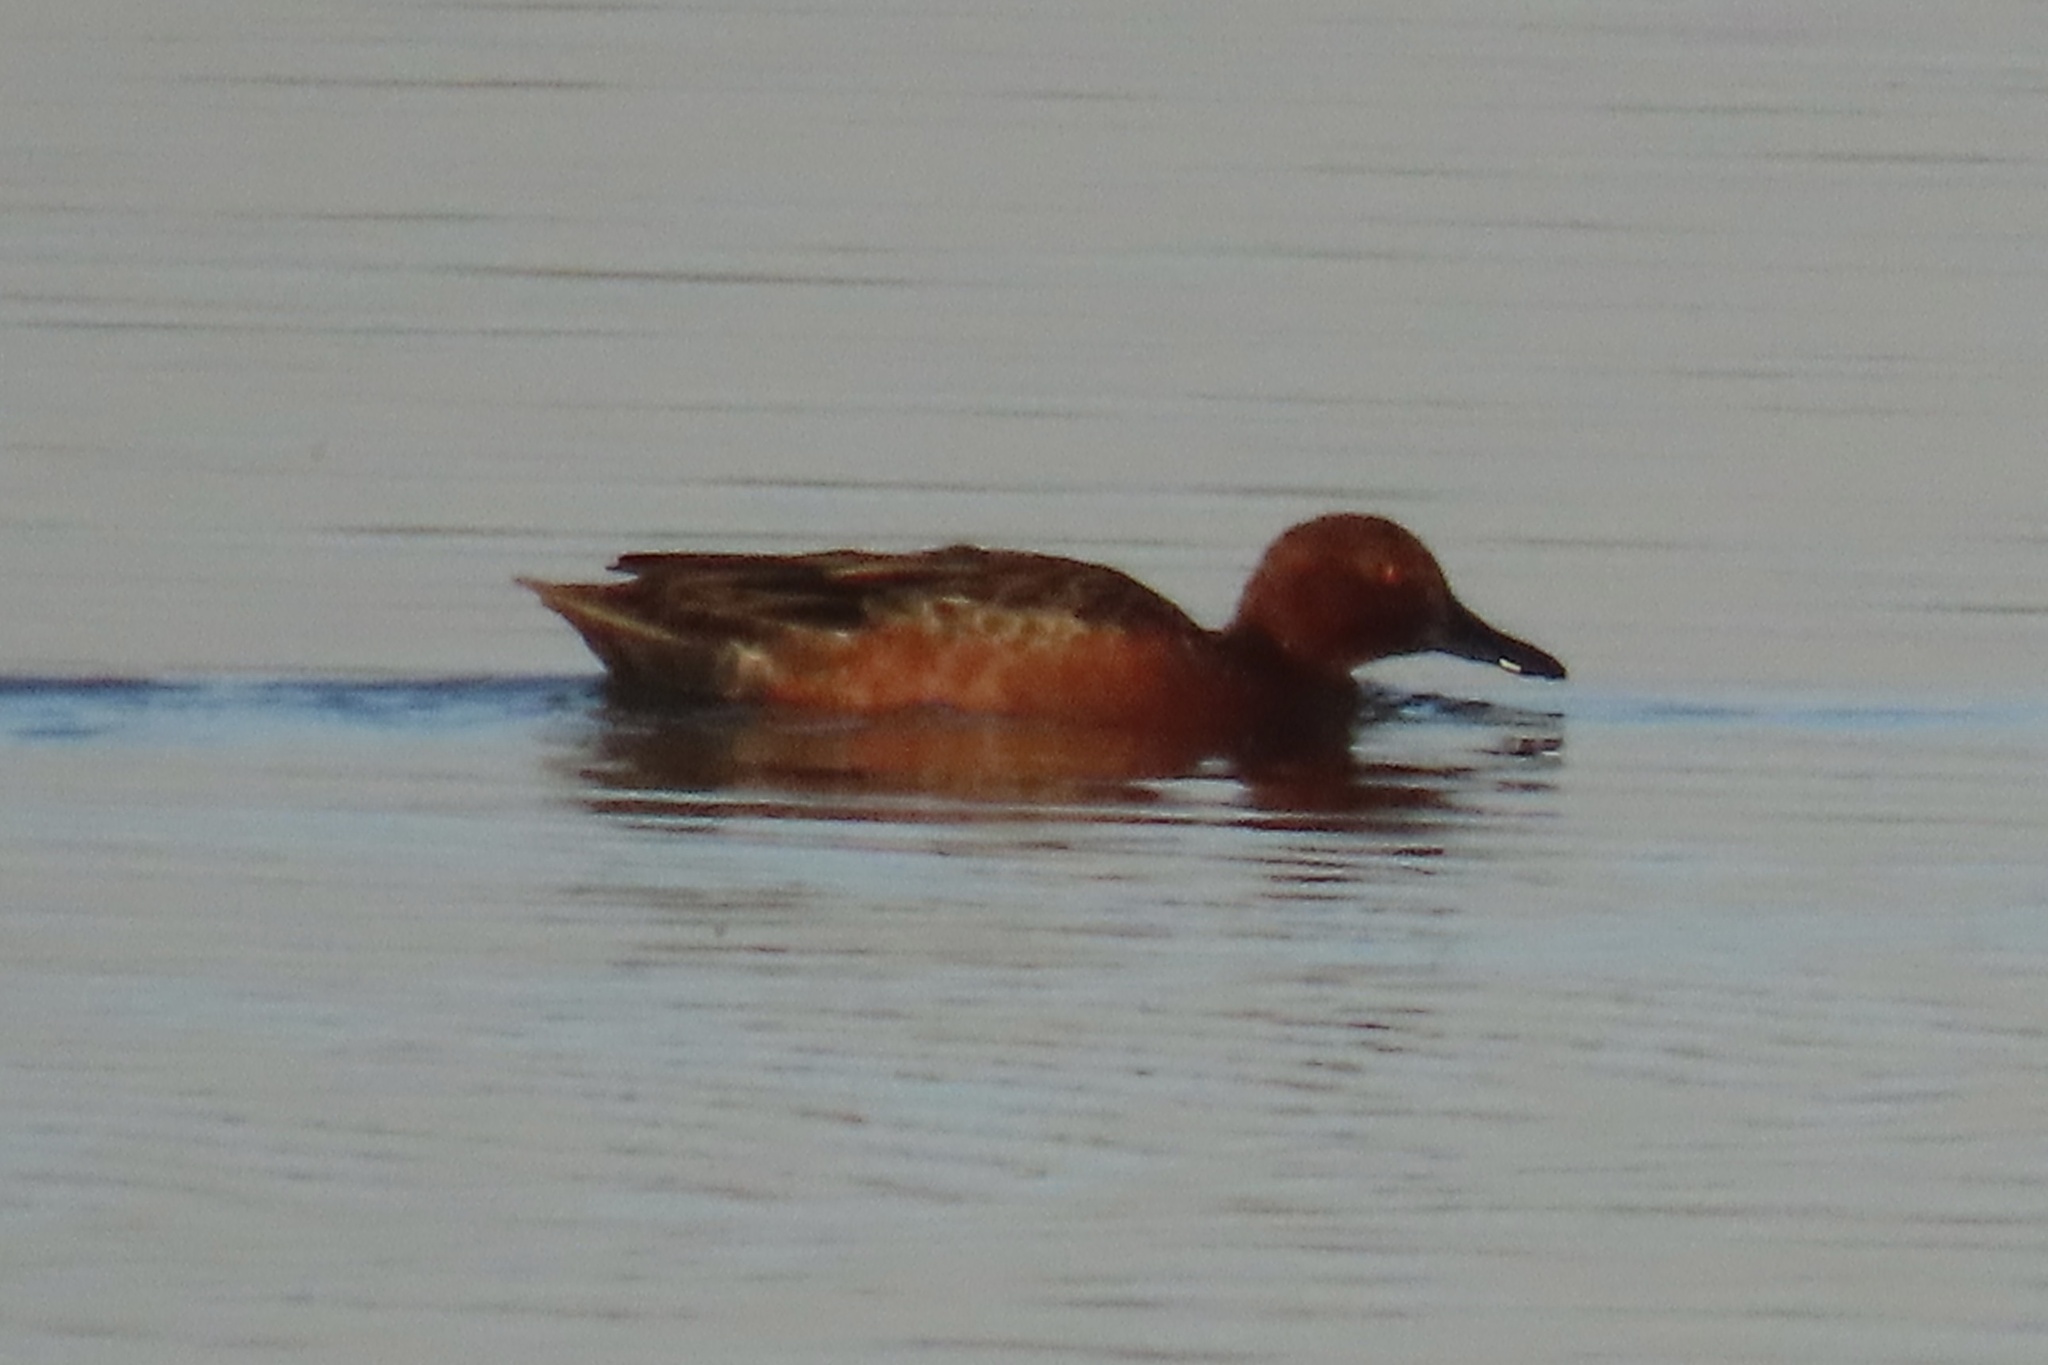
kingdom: Animalia
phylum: Chordata
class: Aves
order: Anseriformes
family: Anatidae
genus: Spatula
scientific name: Spatula cyanoptera
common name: Cinnamon teal
